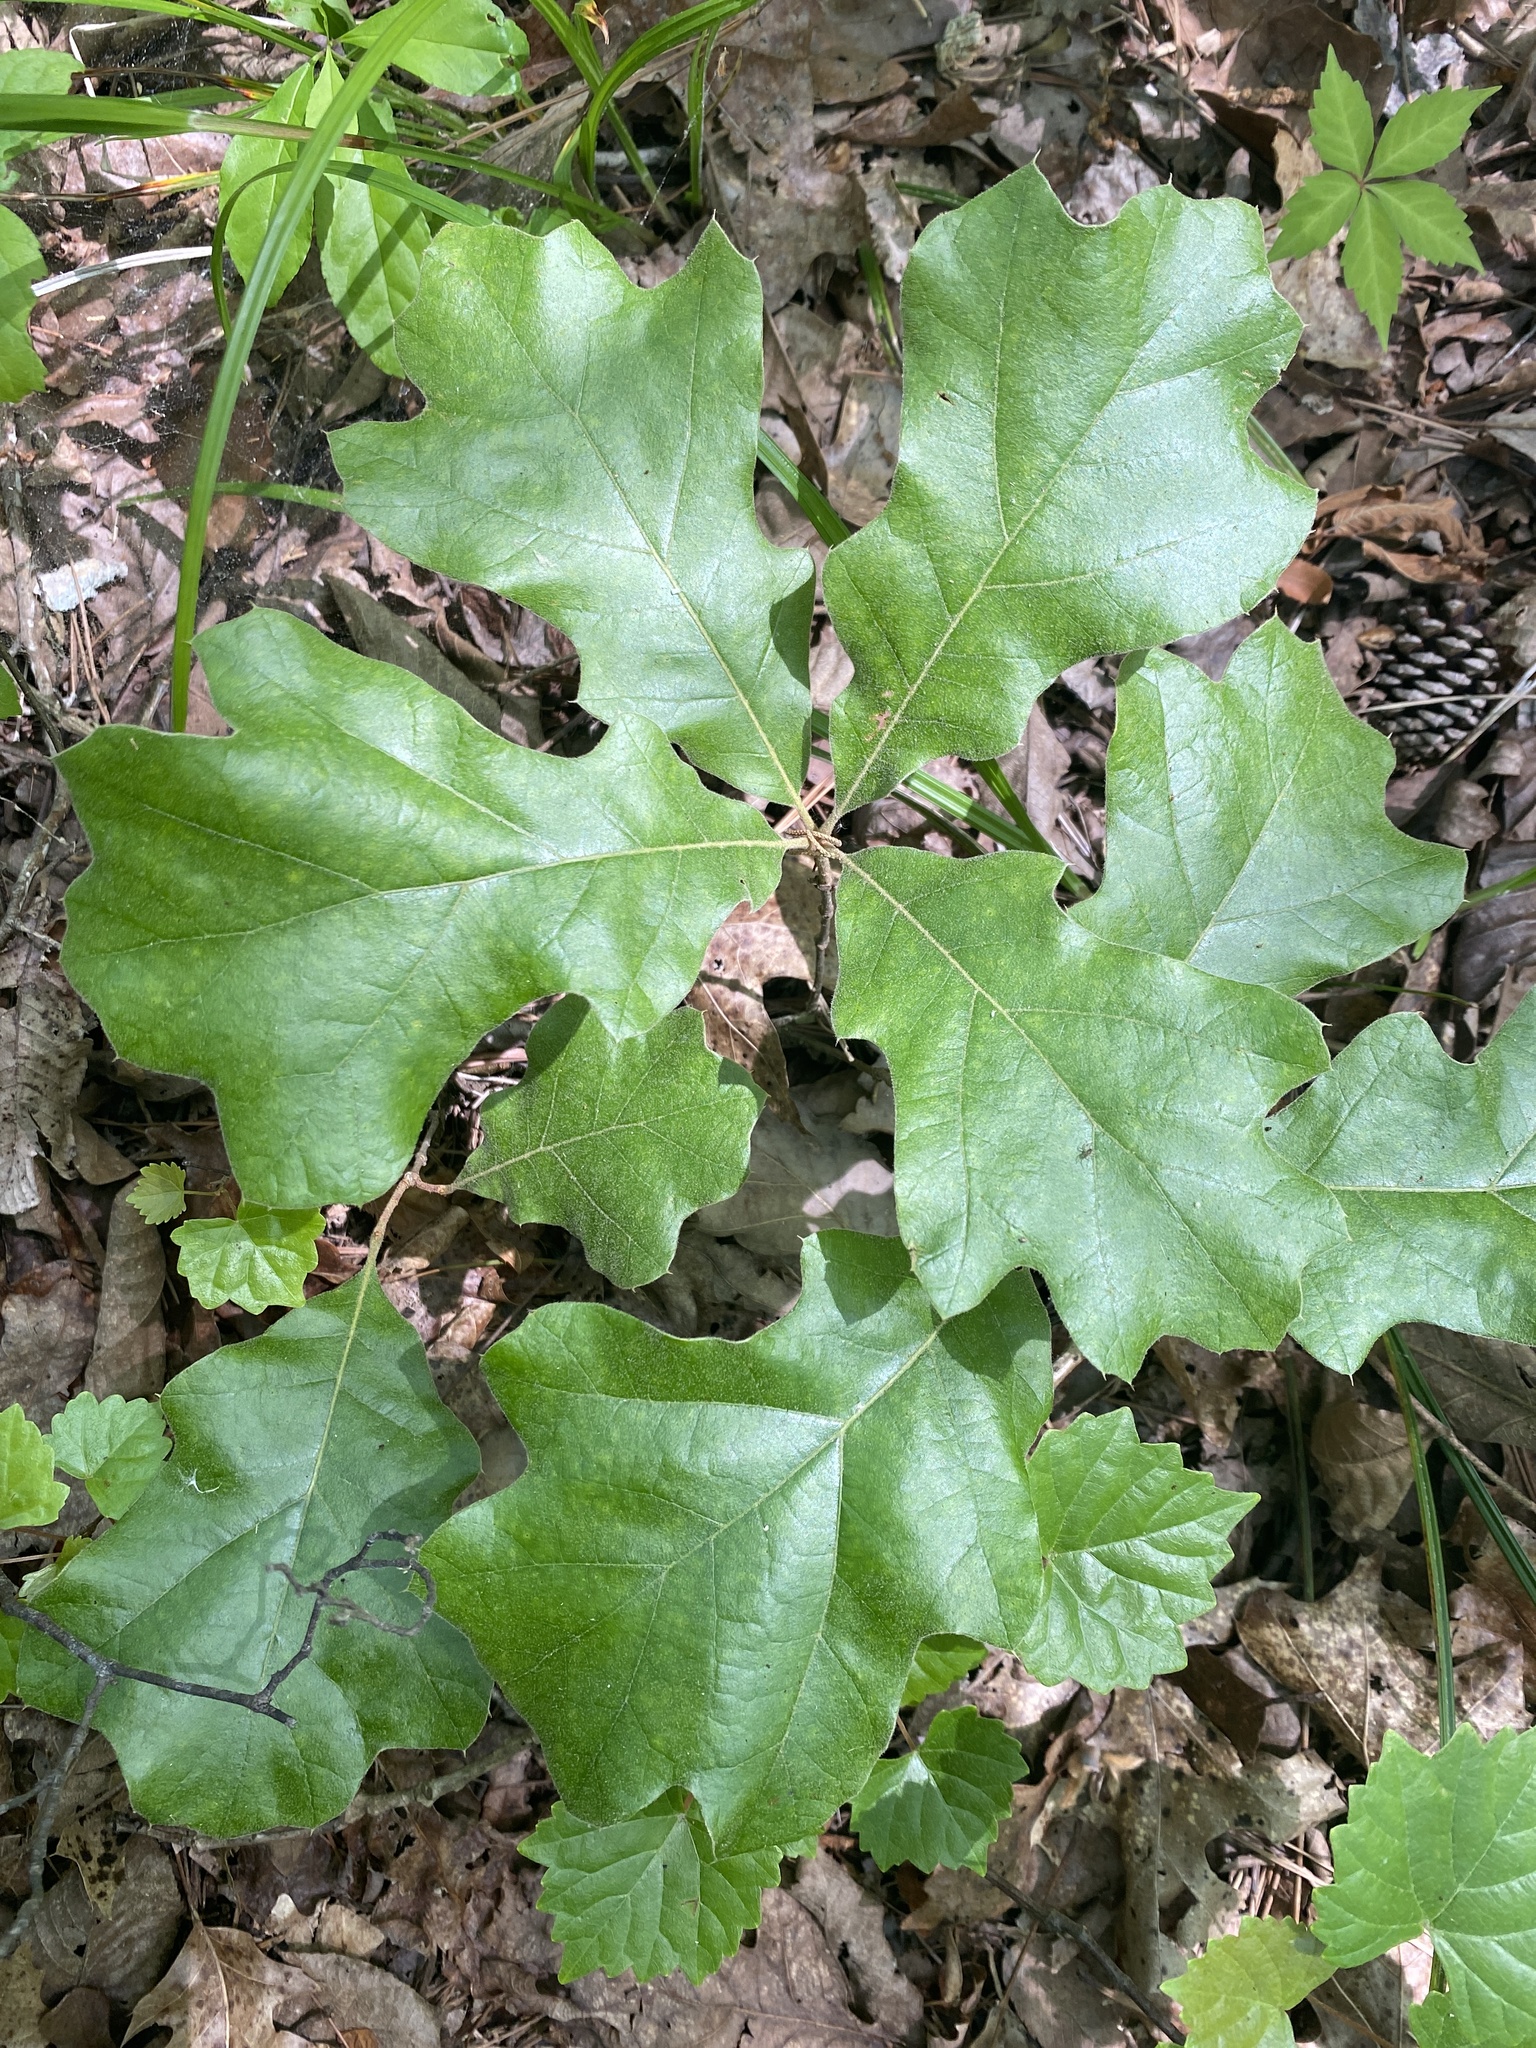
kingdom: Plantae
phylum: Tracheophyta
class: Magnoliopsida
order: Fagales
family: Fagaceae
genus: Quercus
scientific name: Quercus velutina
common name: Black oak
